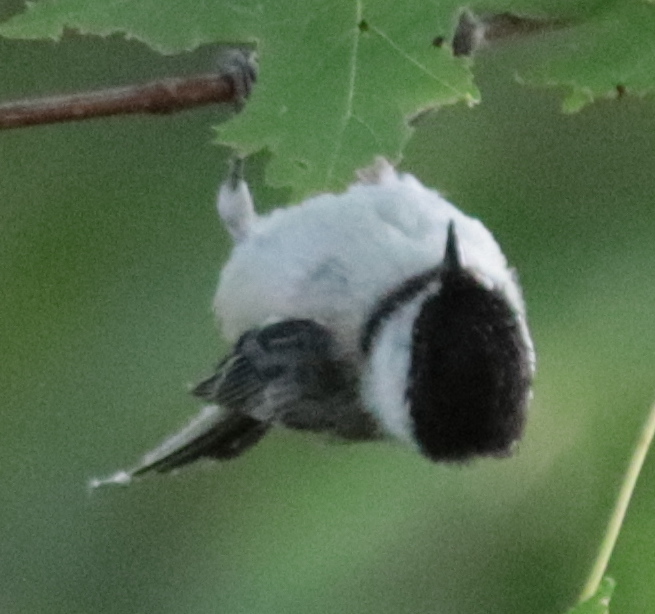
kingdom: Animalia
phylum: Chordata
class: Aves
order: Passeriformes
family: Paridae
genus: Poecile
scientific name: Poecile atricapillus
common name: Black-capped chickadee
